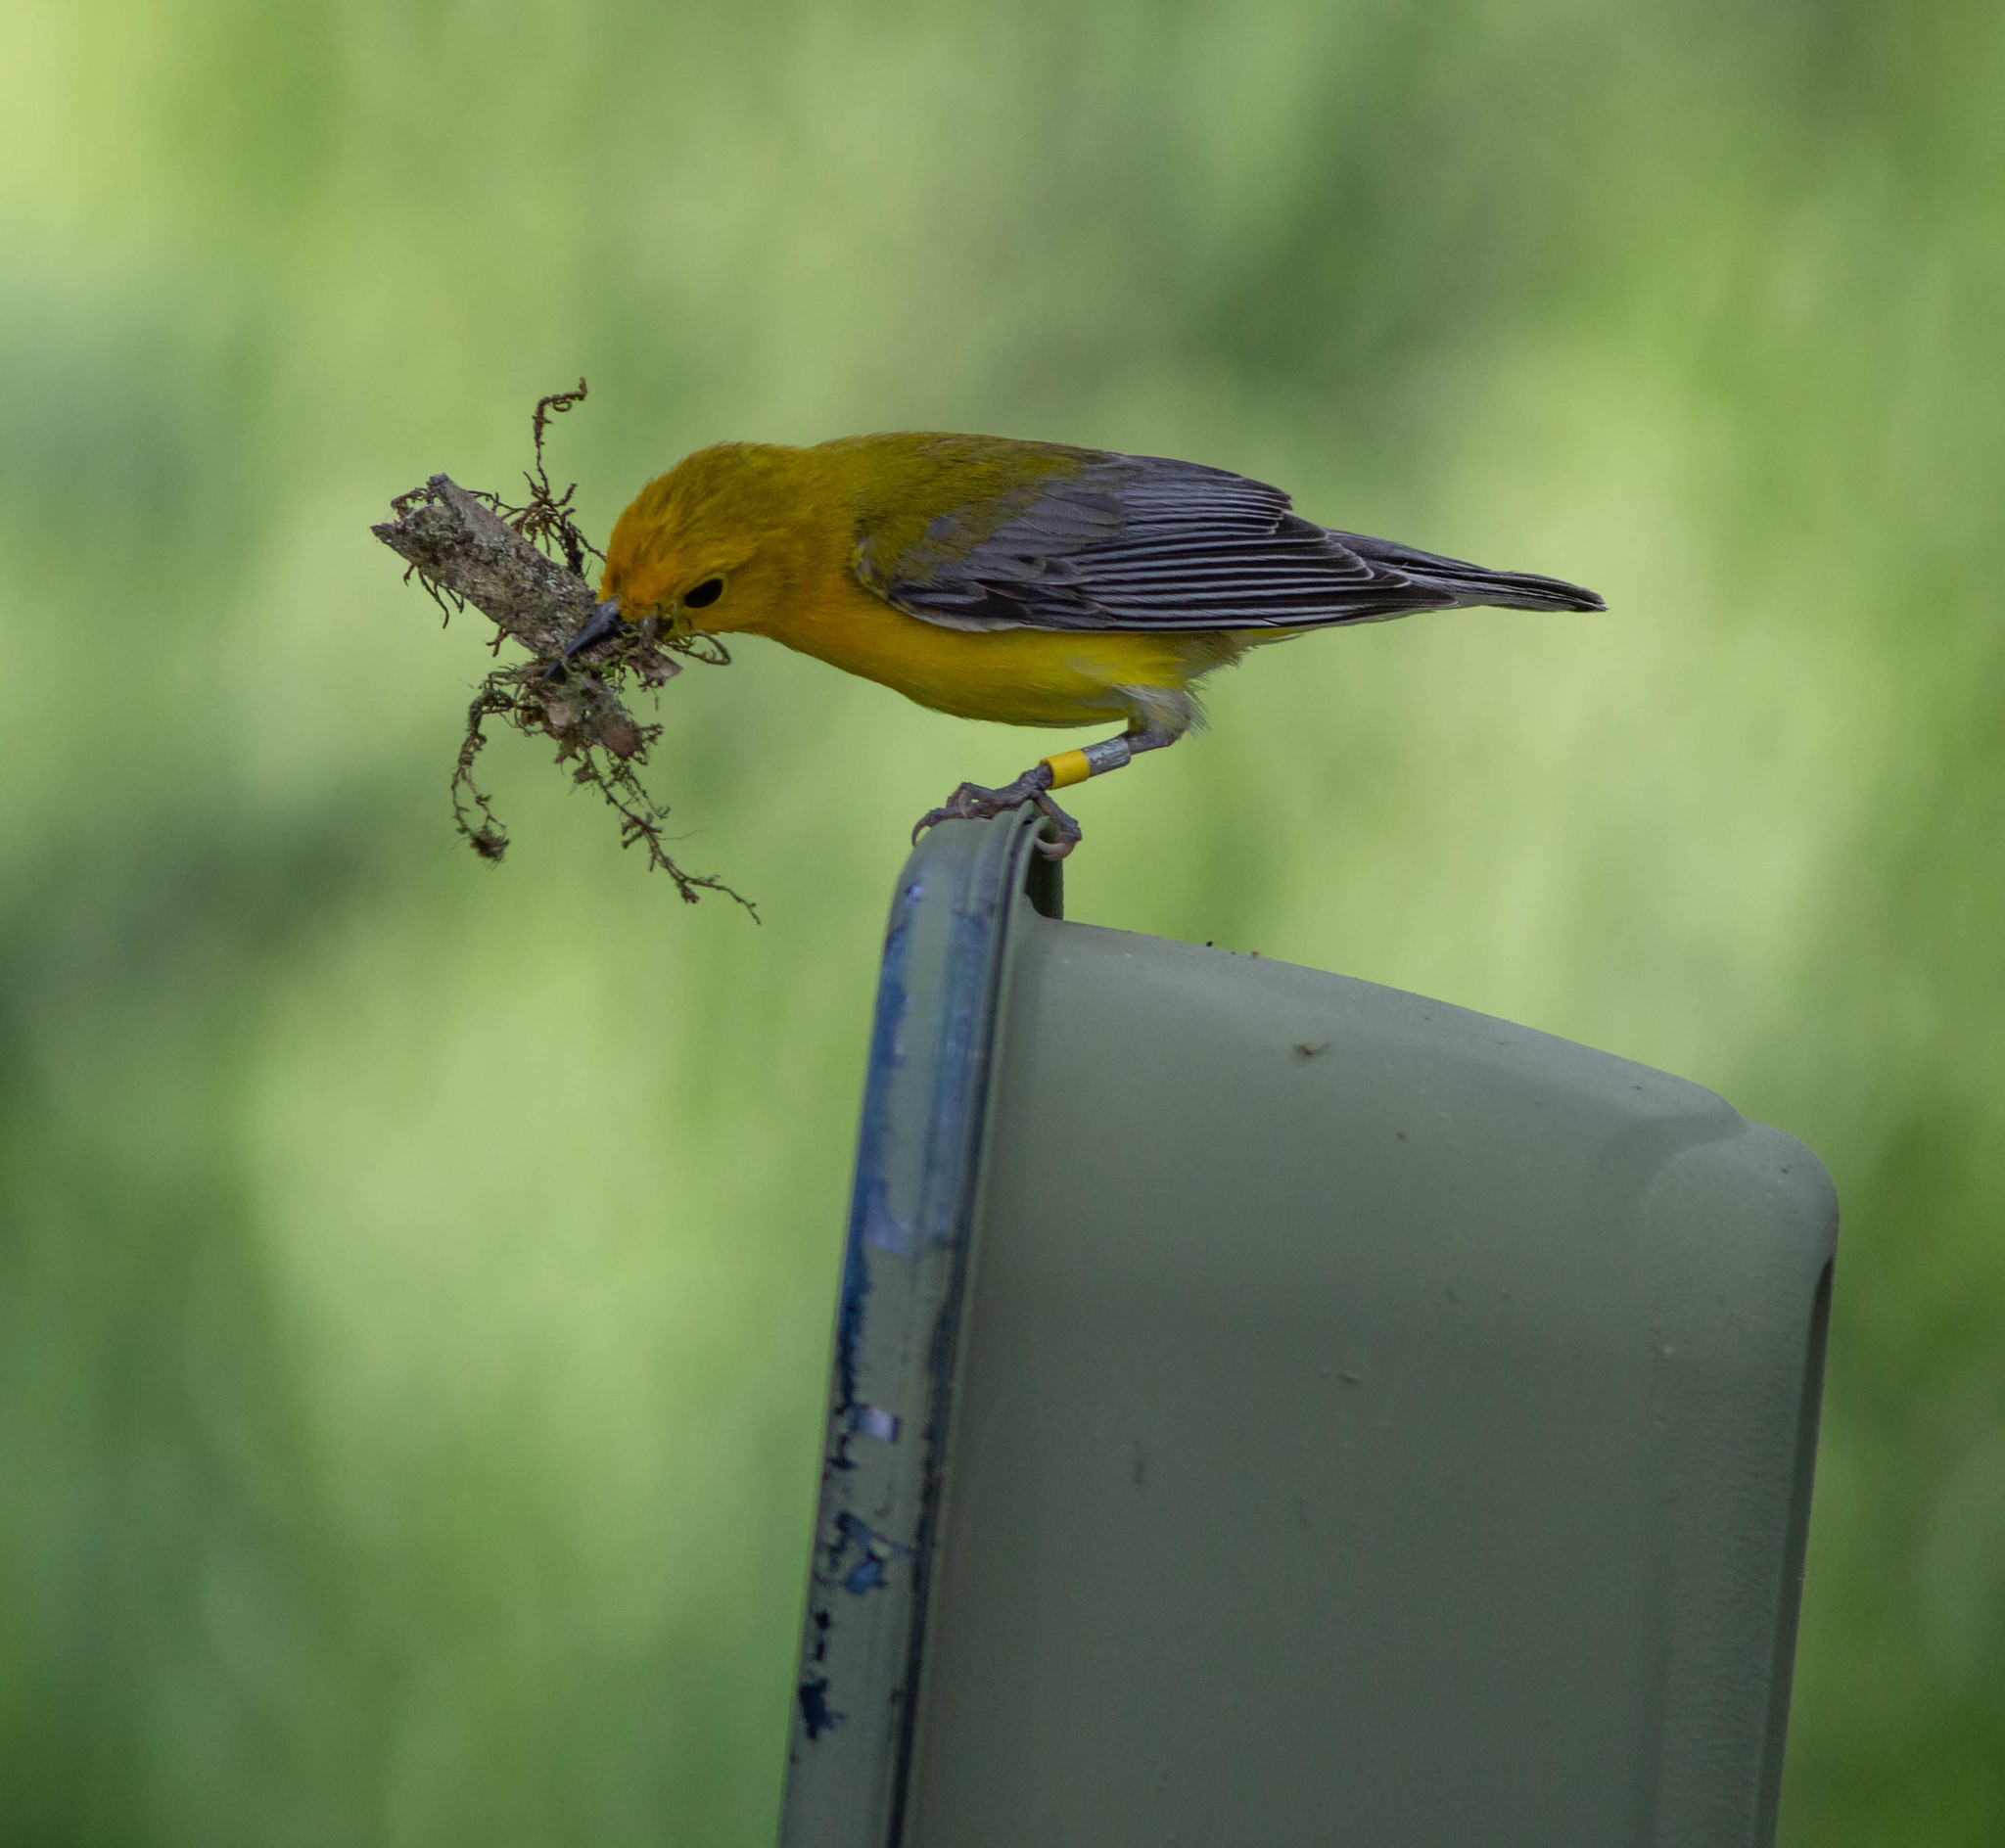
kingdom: Animalia
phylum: Chordata
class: Aves
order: Passeriformes
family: Parulidae
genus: Protonotaria
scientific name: Protonotaria citrea
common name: Prothonotary warbler
